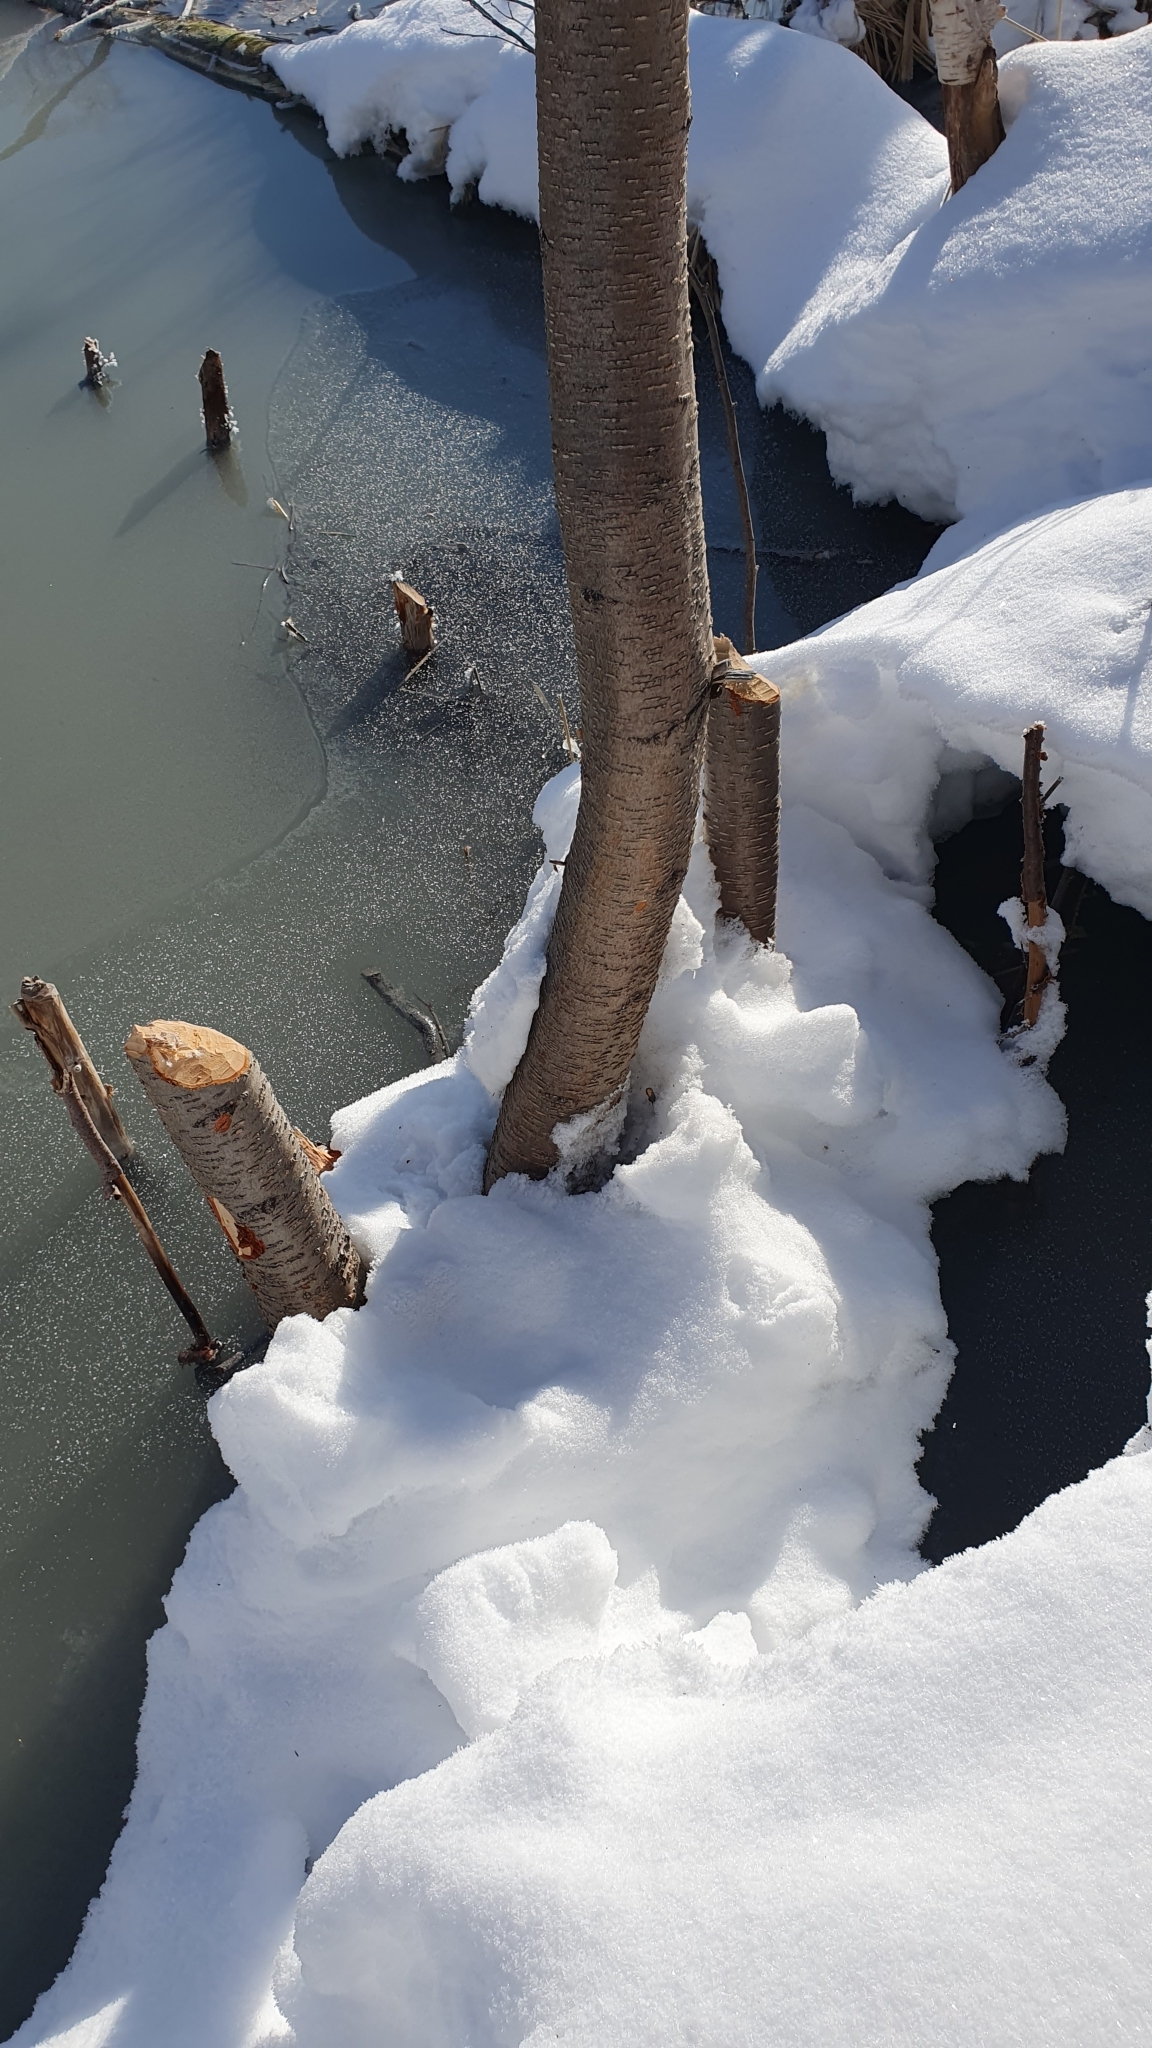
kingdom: Animalia
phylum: Chordata
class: Mammalia
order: Rodentia
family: Castoridae
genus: Castor
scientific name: Castor fiber
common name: Eurasian beaver
